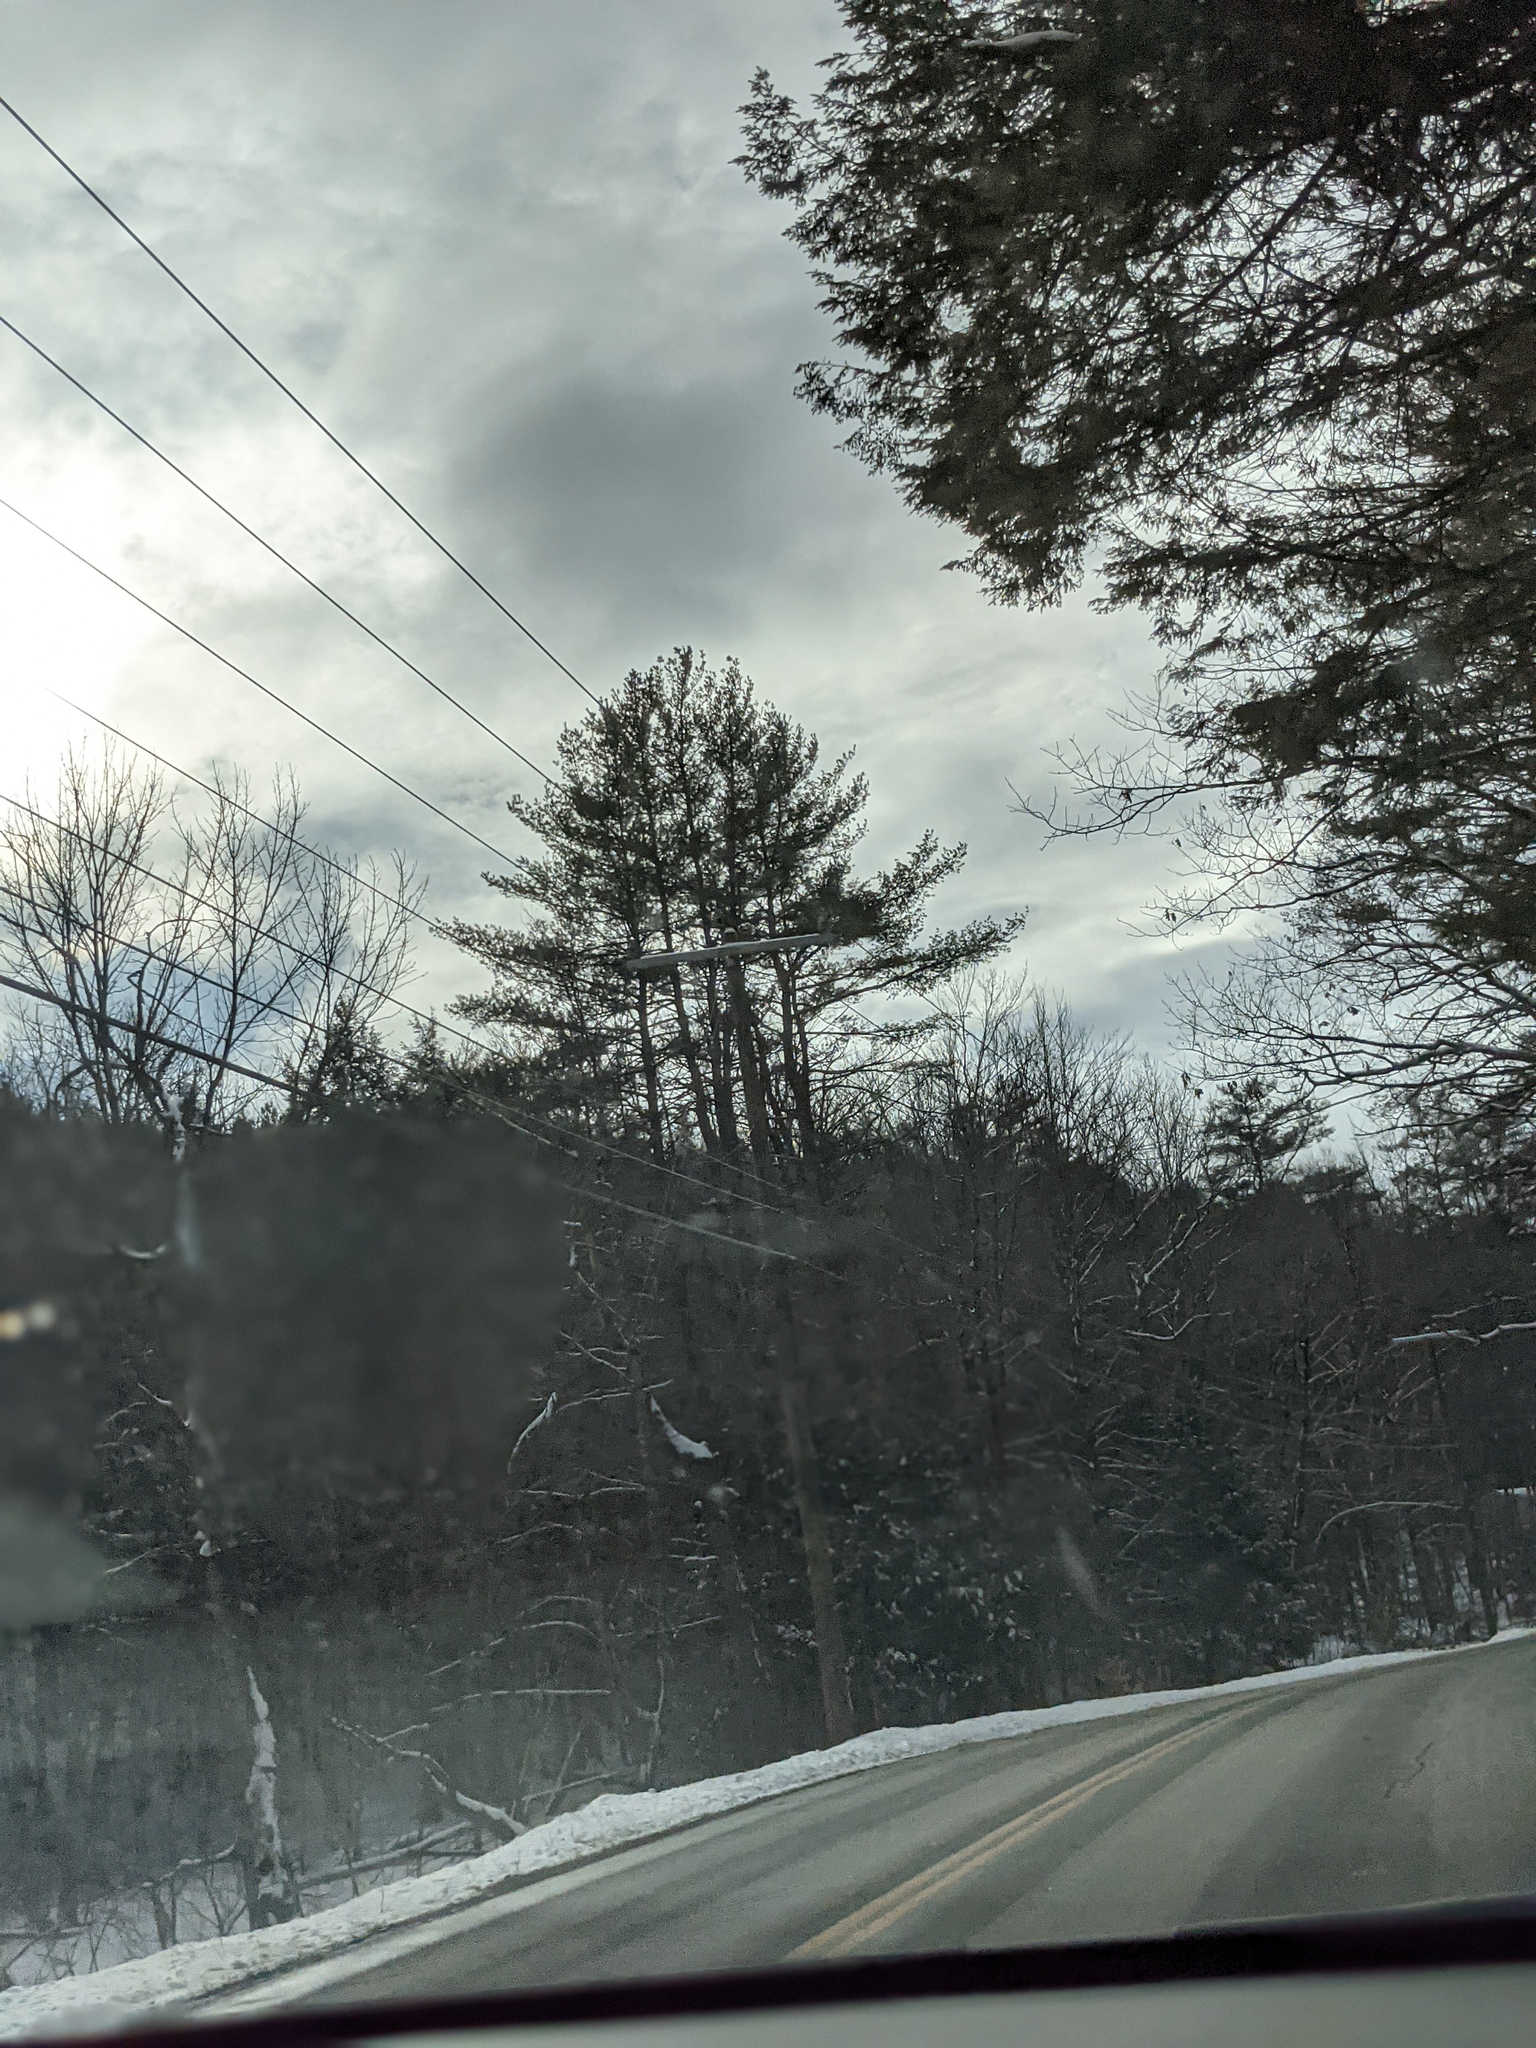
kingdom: Plantae
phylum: Tracheophyta
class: Pinopsida
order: Pinales
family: Pinaceae
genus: Pinus
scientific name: Pinus strobus
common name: Weymouth pine
